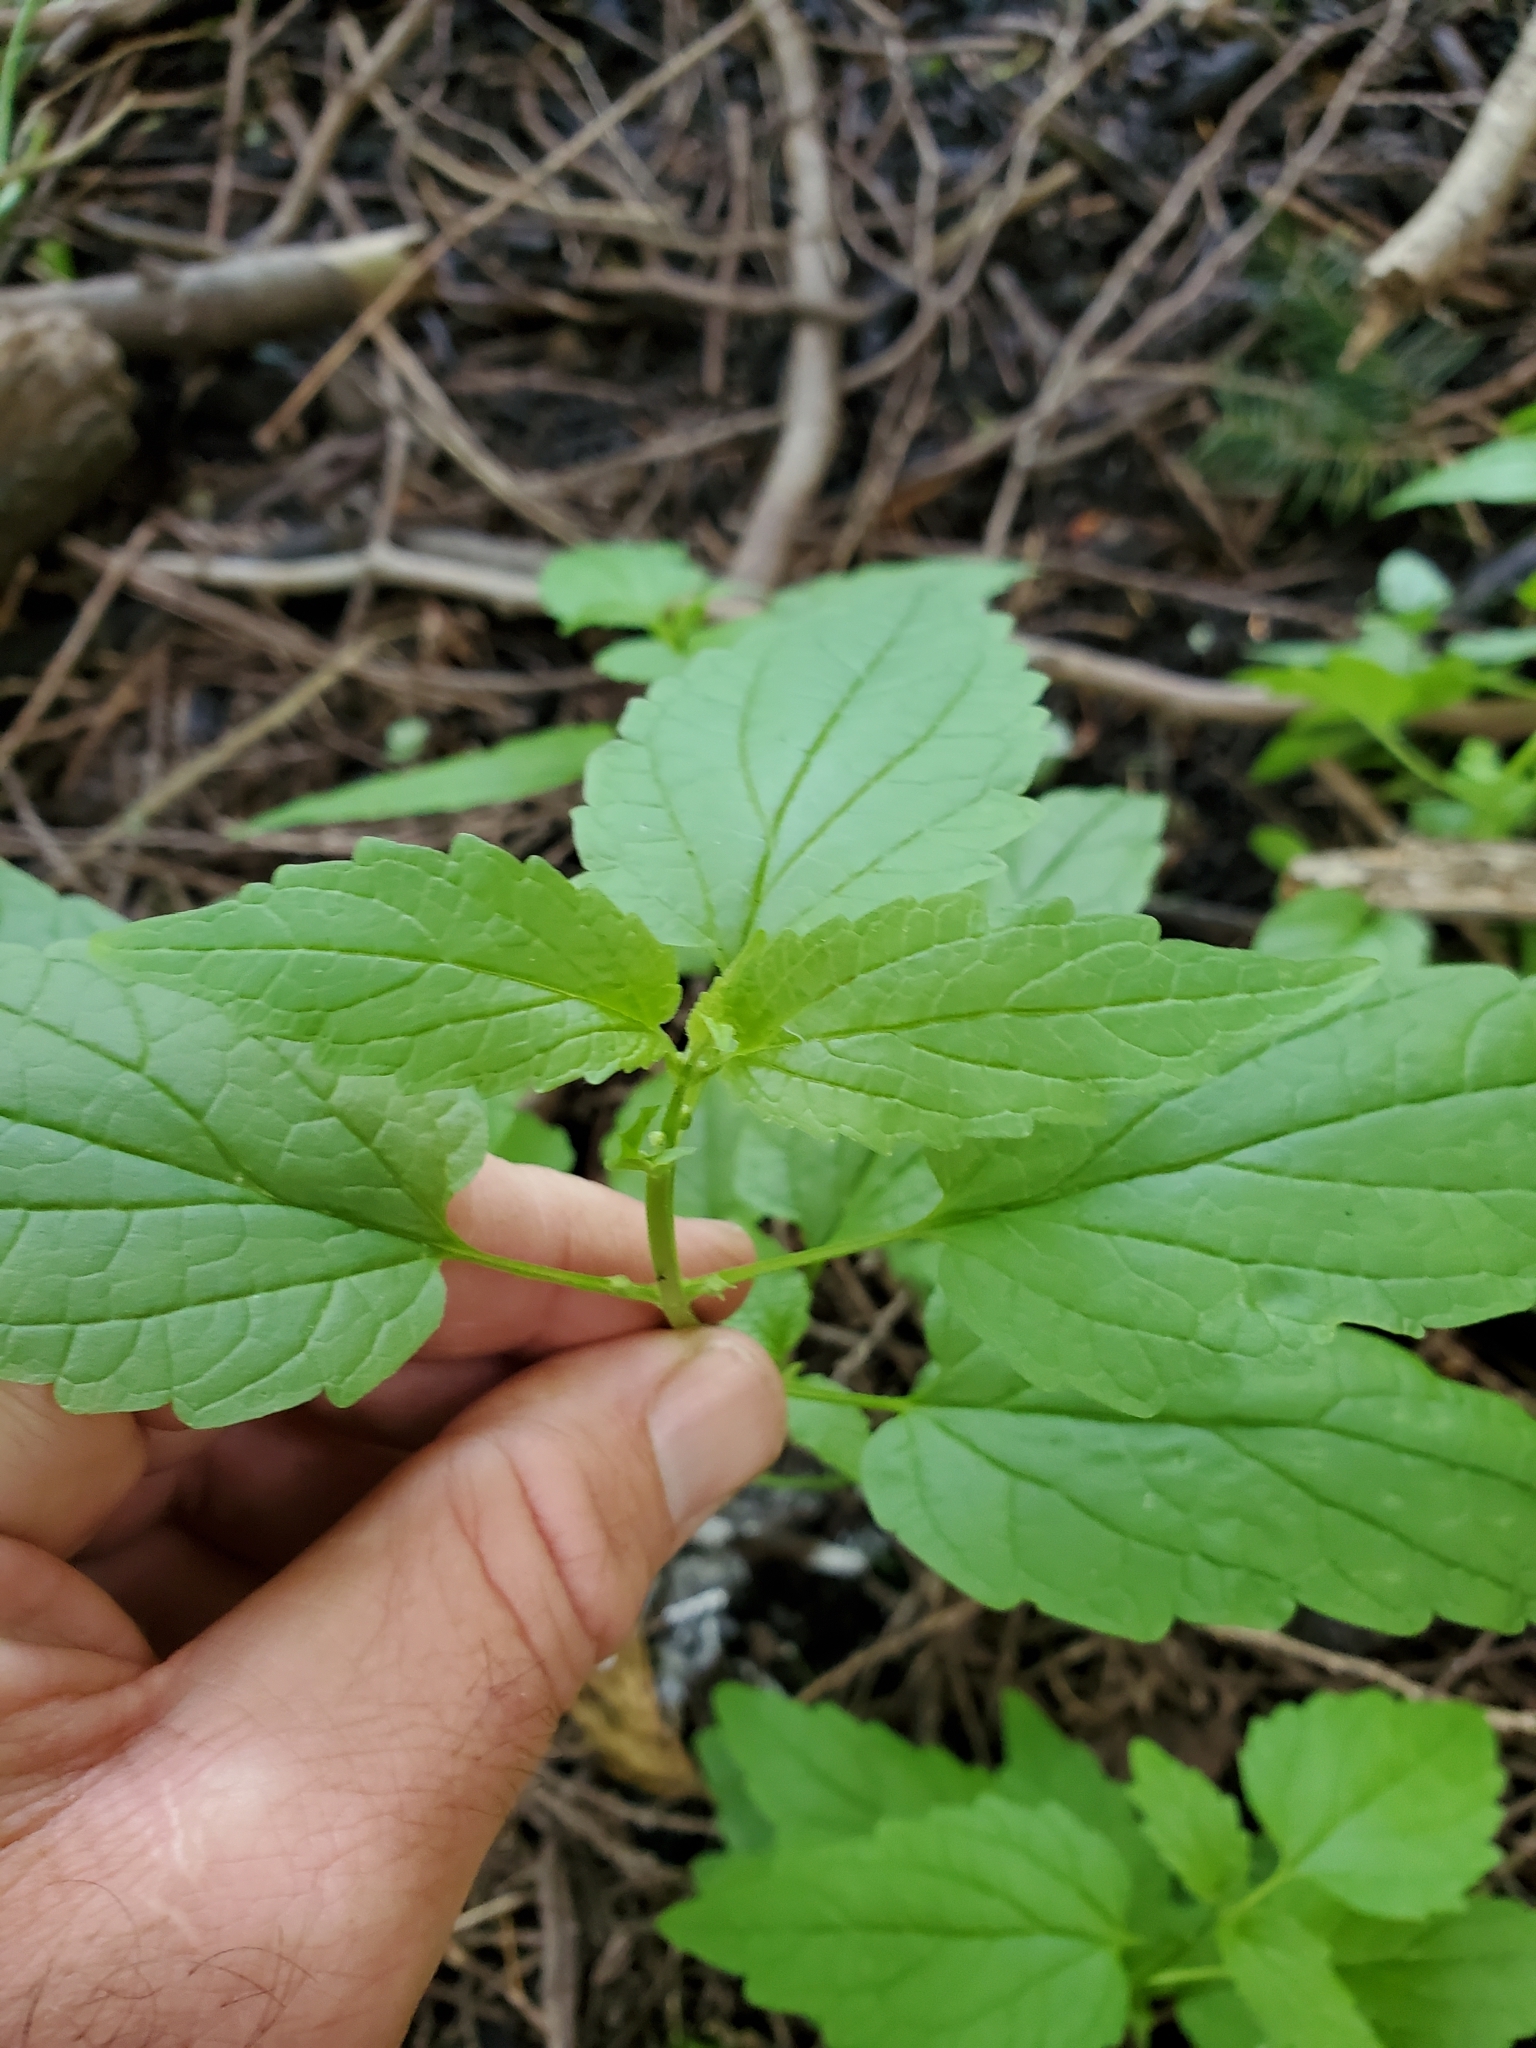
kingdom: Plantae
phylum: Tracheophyta
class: Magnoliopsida
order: Lamiales
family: Lamiaceae
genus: Scutellaria
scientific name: Scutellaria lateriflora
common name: Blue skullcap
